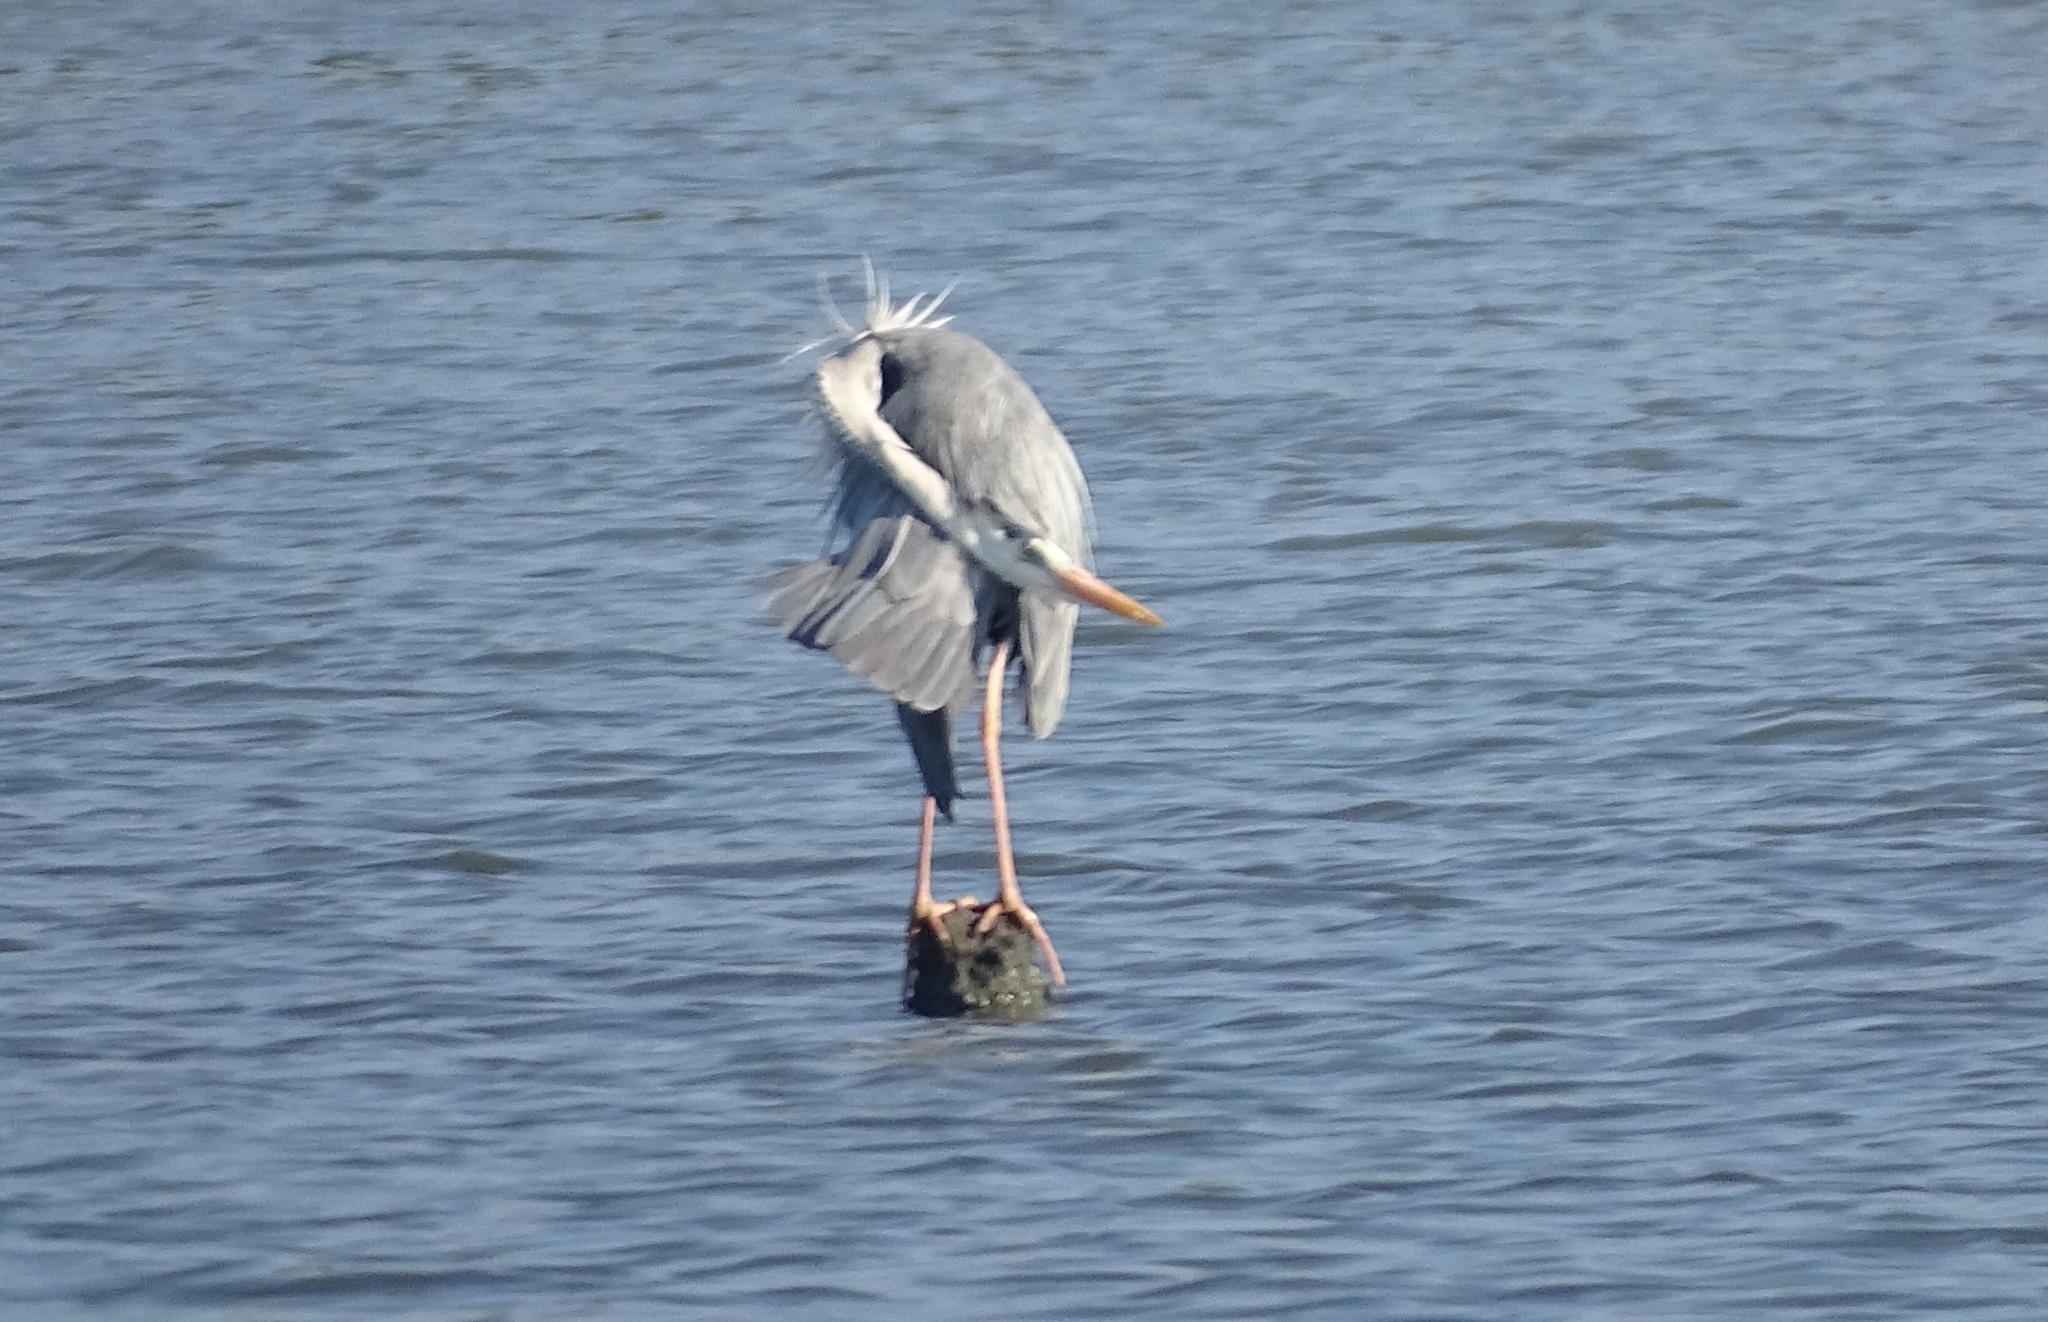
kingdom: Animalia
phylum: Chordata
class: Aves
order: Pelecaniformes
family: Ardeidae
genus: Ardea
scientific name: Ardea cinerea
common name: Grey heron
